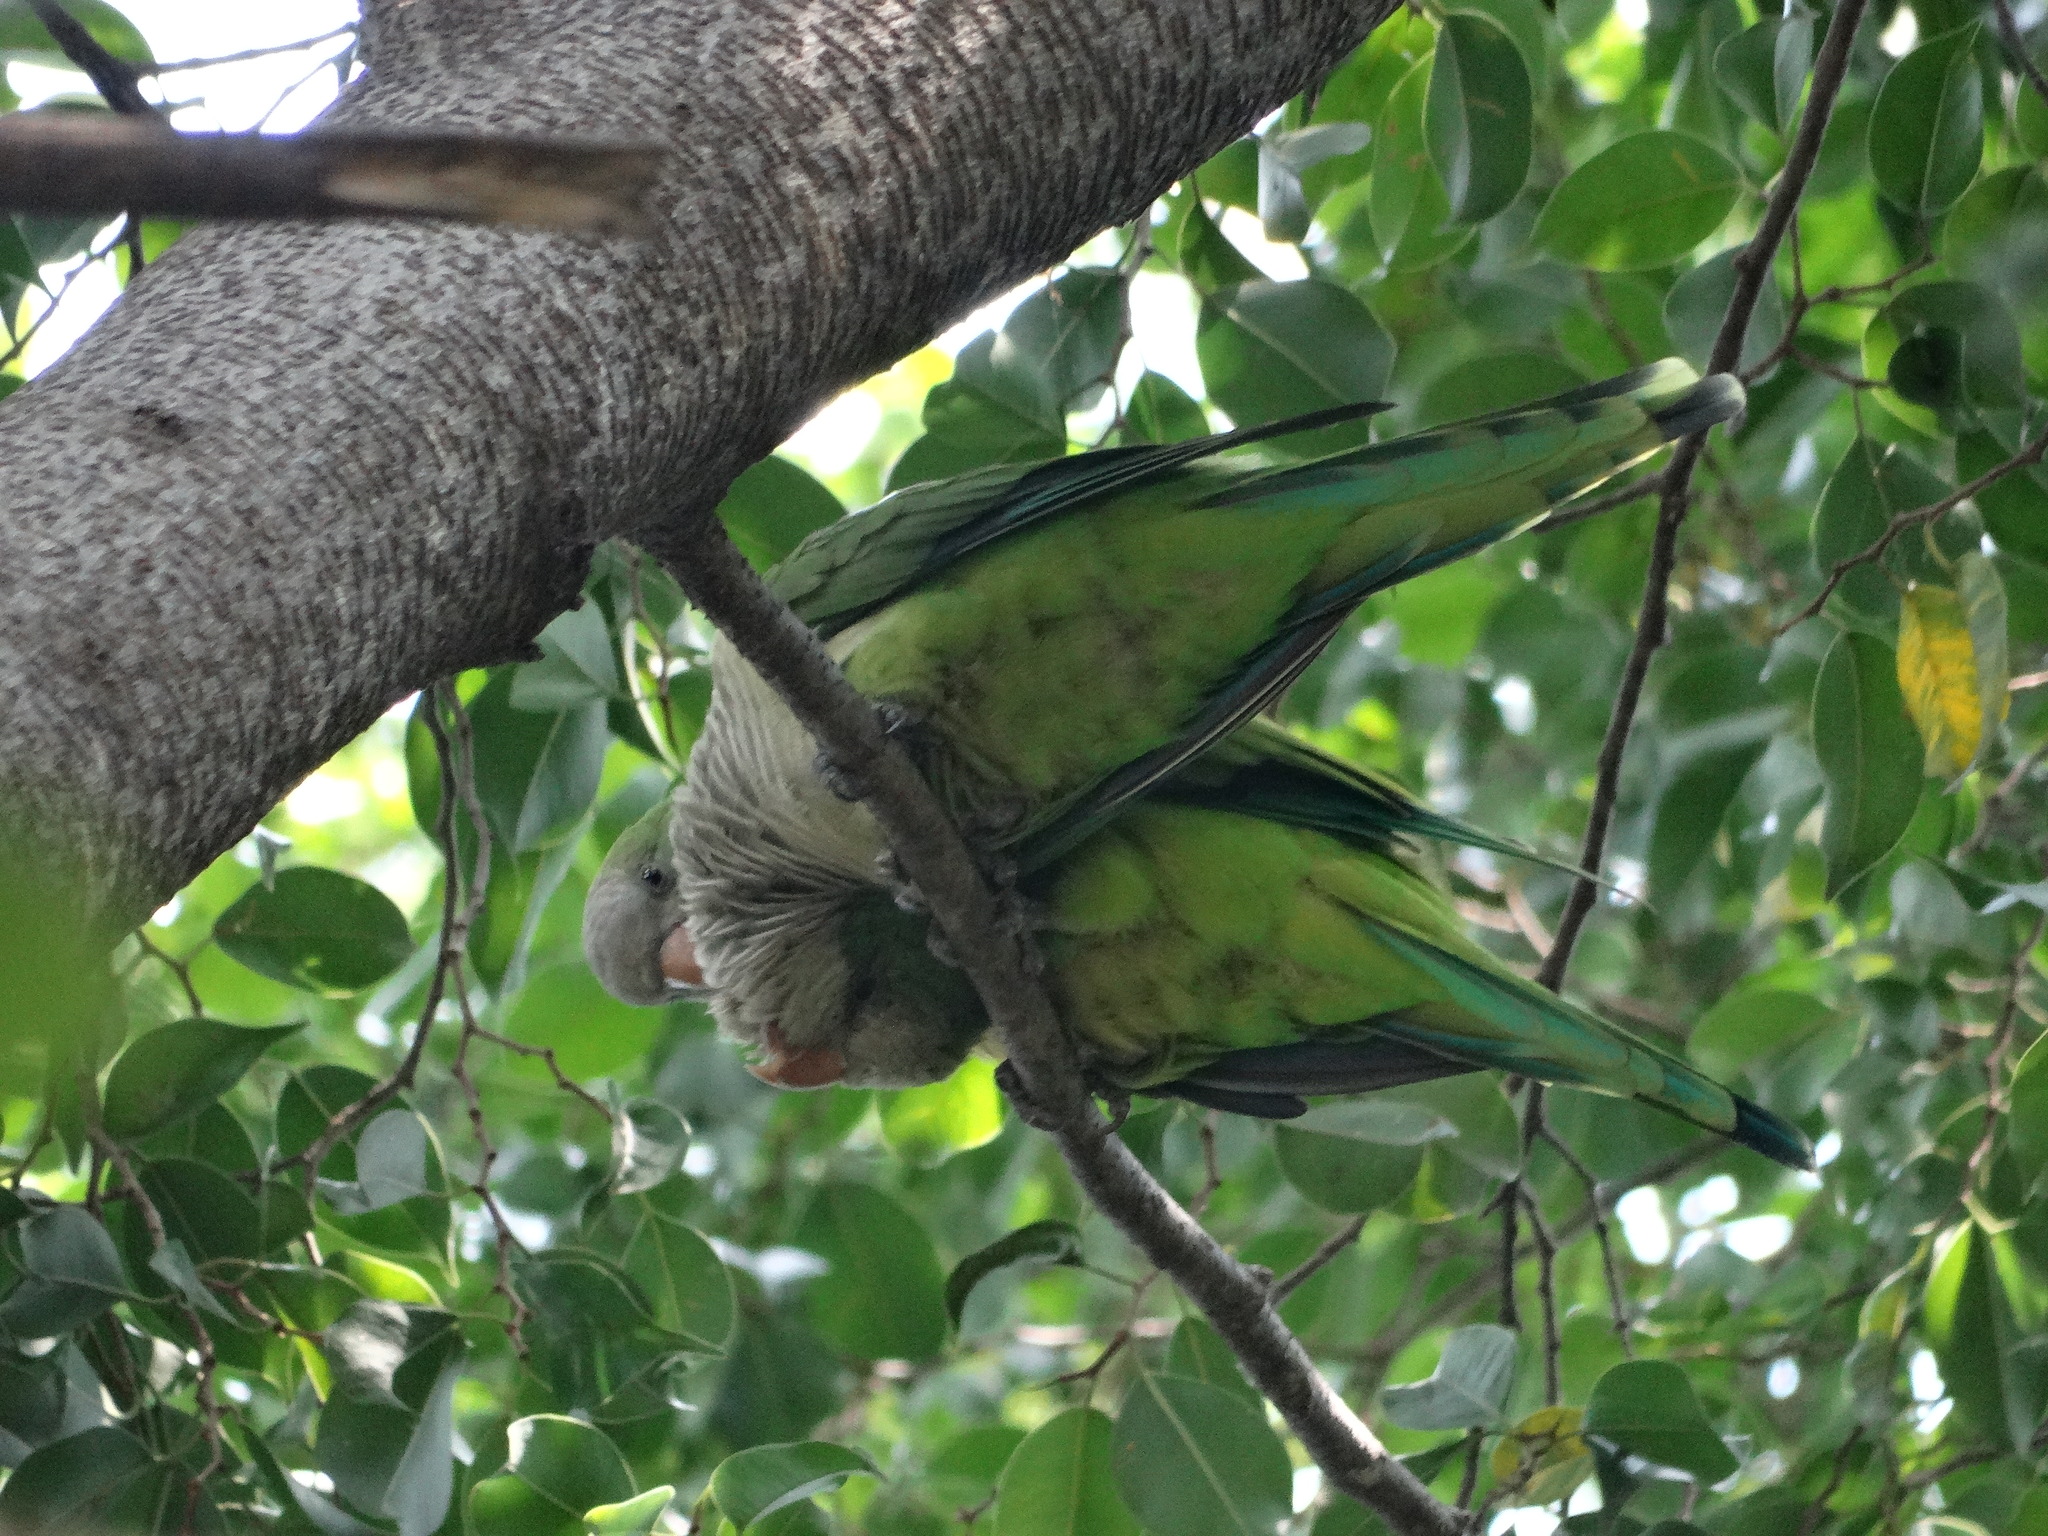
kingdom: Animalia
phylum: Chordata
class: Aves
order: Psittaciformes
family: Psittacidae
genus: Myiopsitta
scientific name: Myiopsitta monachus
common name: Monk parakeet
